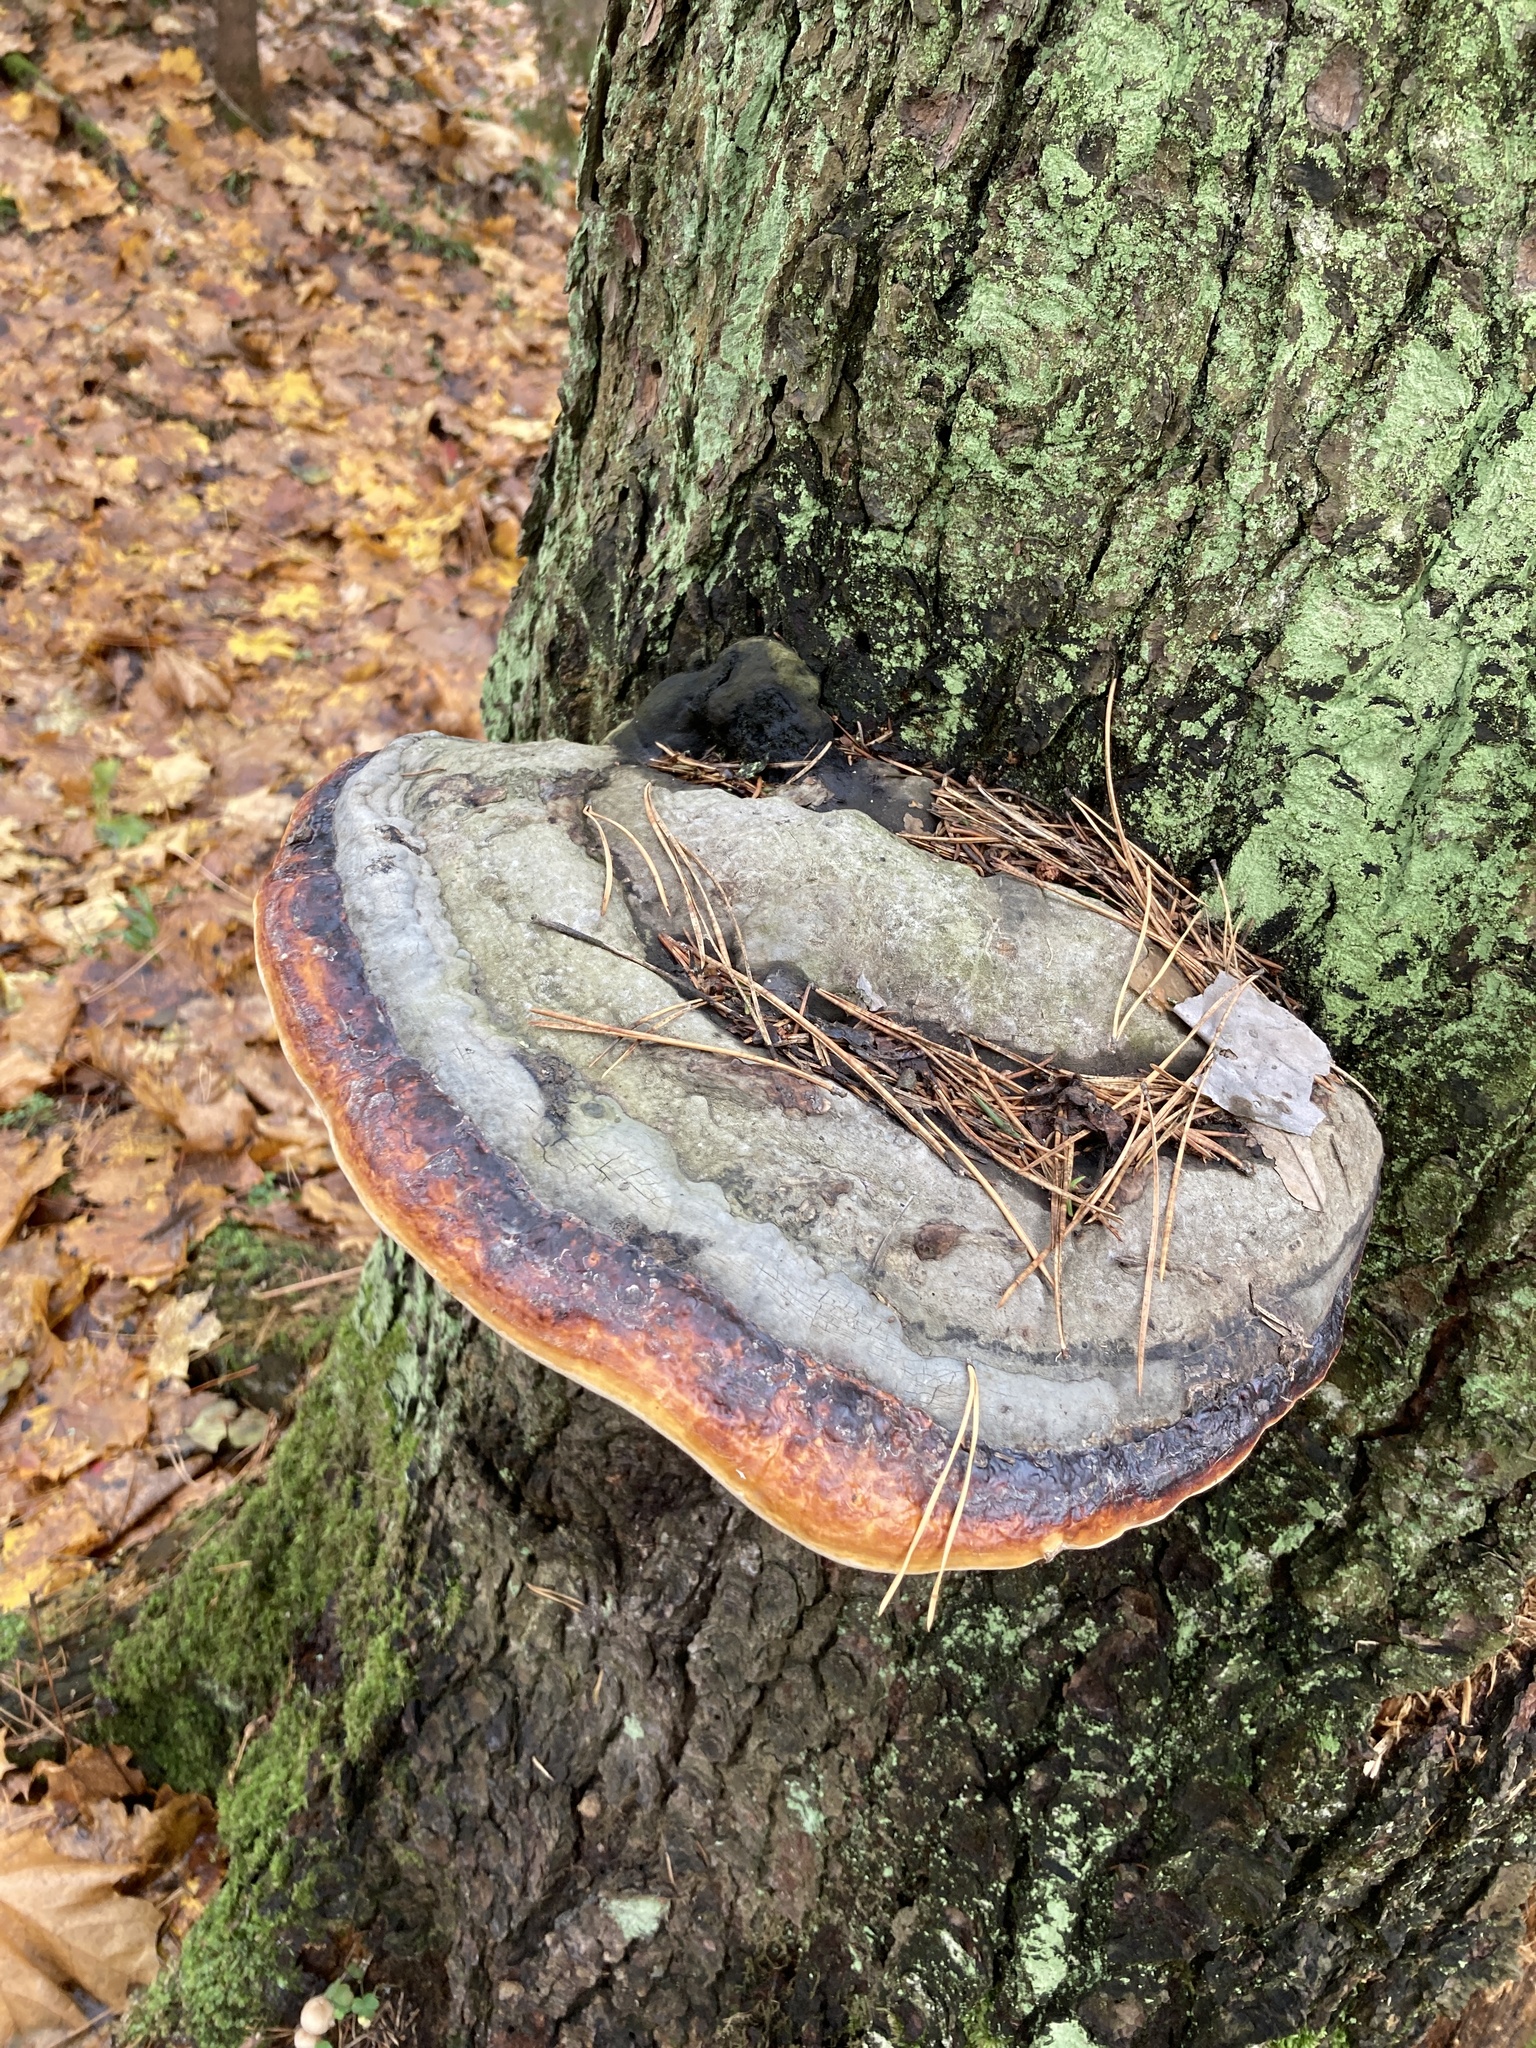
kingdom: Fungi
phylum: Basidiomycota
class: Agaricomycetes
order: Polyporales
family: Fomitopsidaceae
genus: Fomitopsis
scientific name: Fomitopsis pinicola
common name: Red-belted bracket
